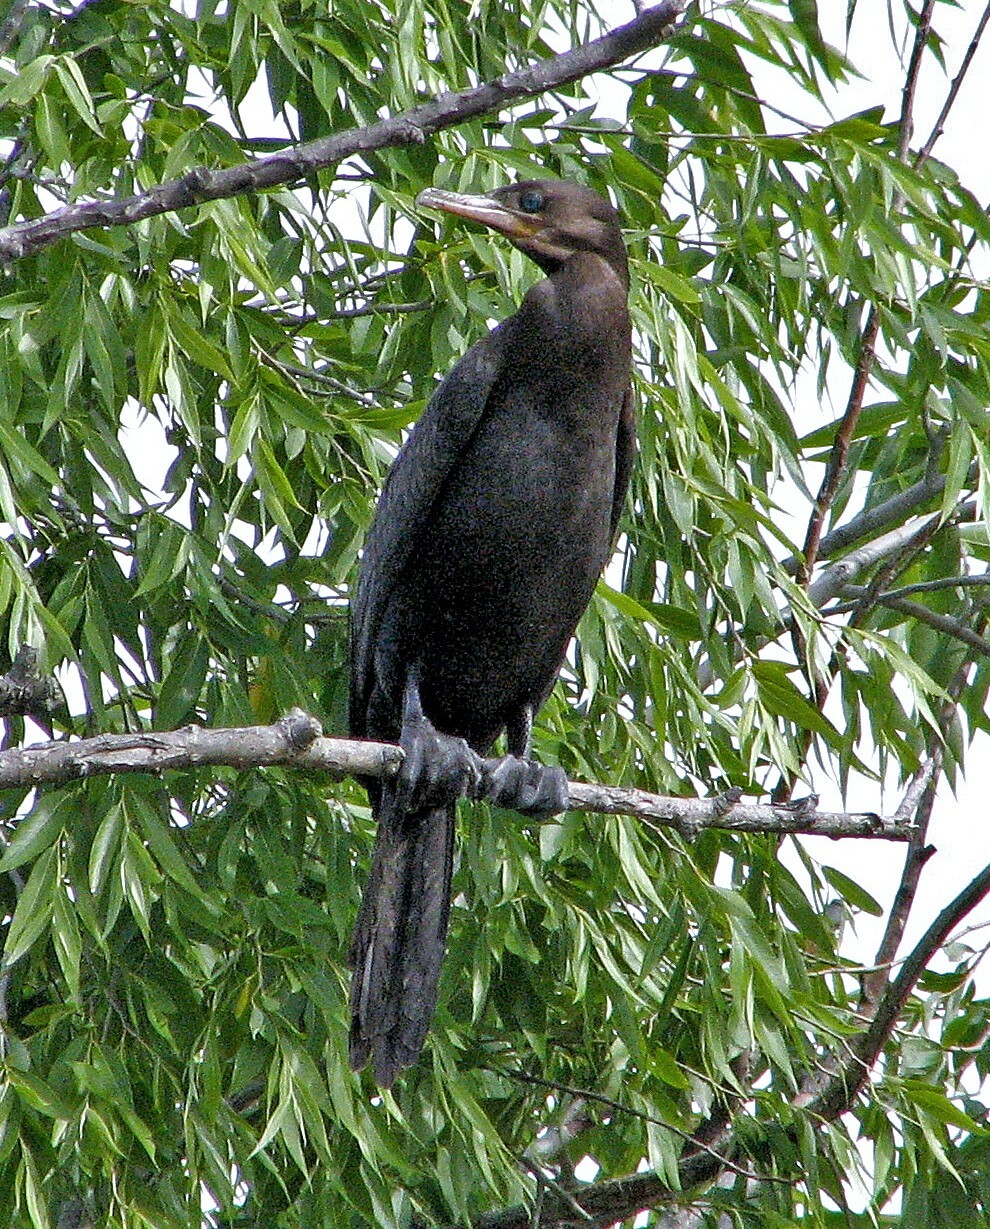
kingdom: Animalia
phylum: Chordata
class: Aves
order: Suliformes
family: Phalacrocoracidae
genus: Phalacrocorax
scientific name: Phalacrocorax brasilianus
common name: Neotropic cormorant
